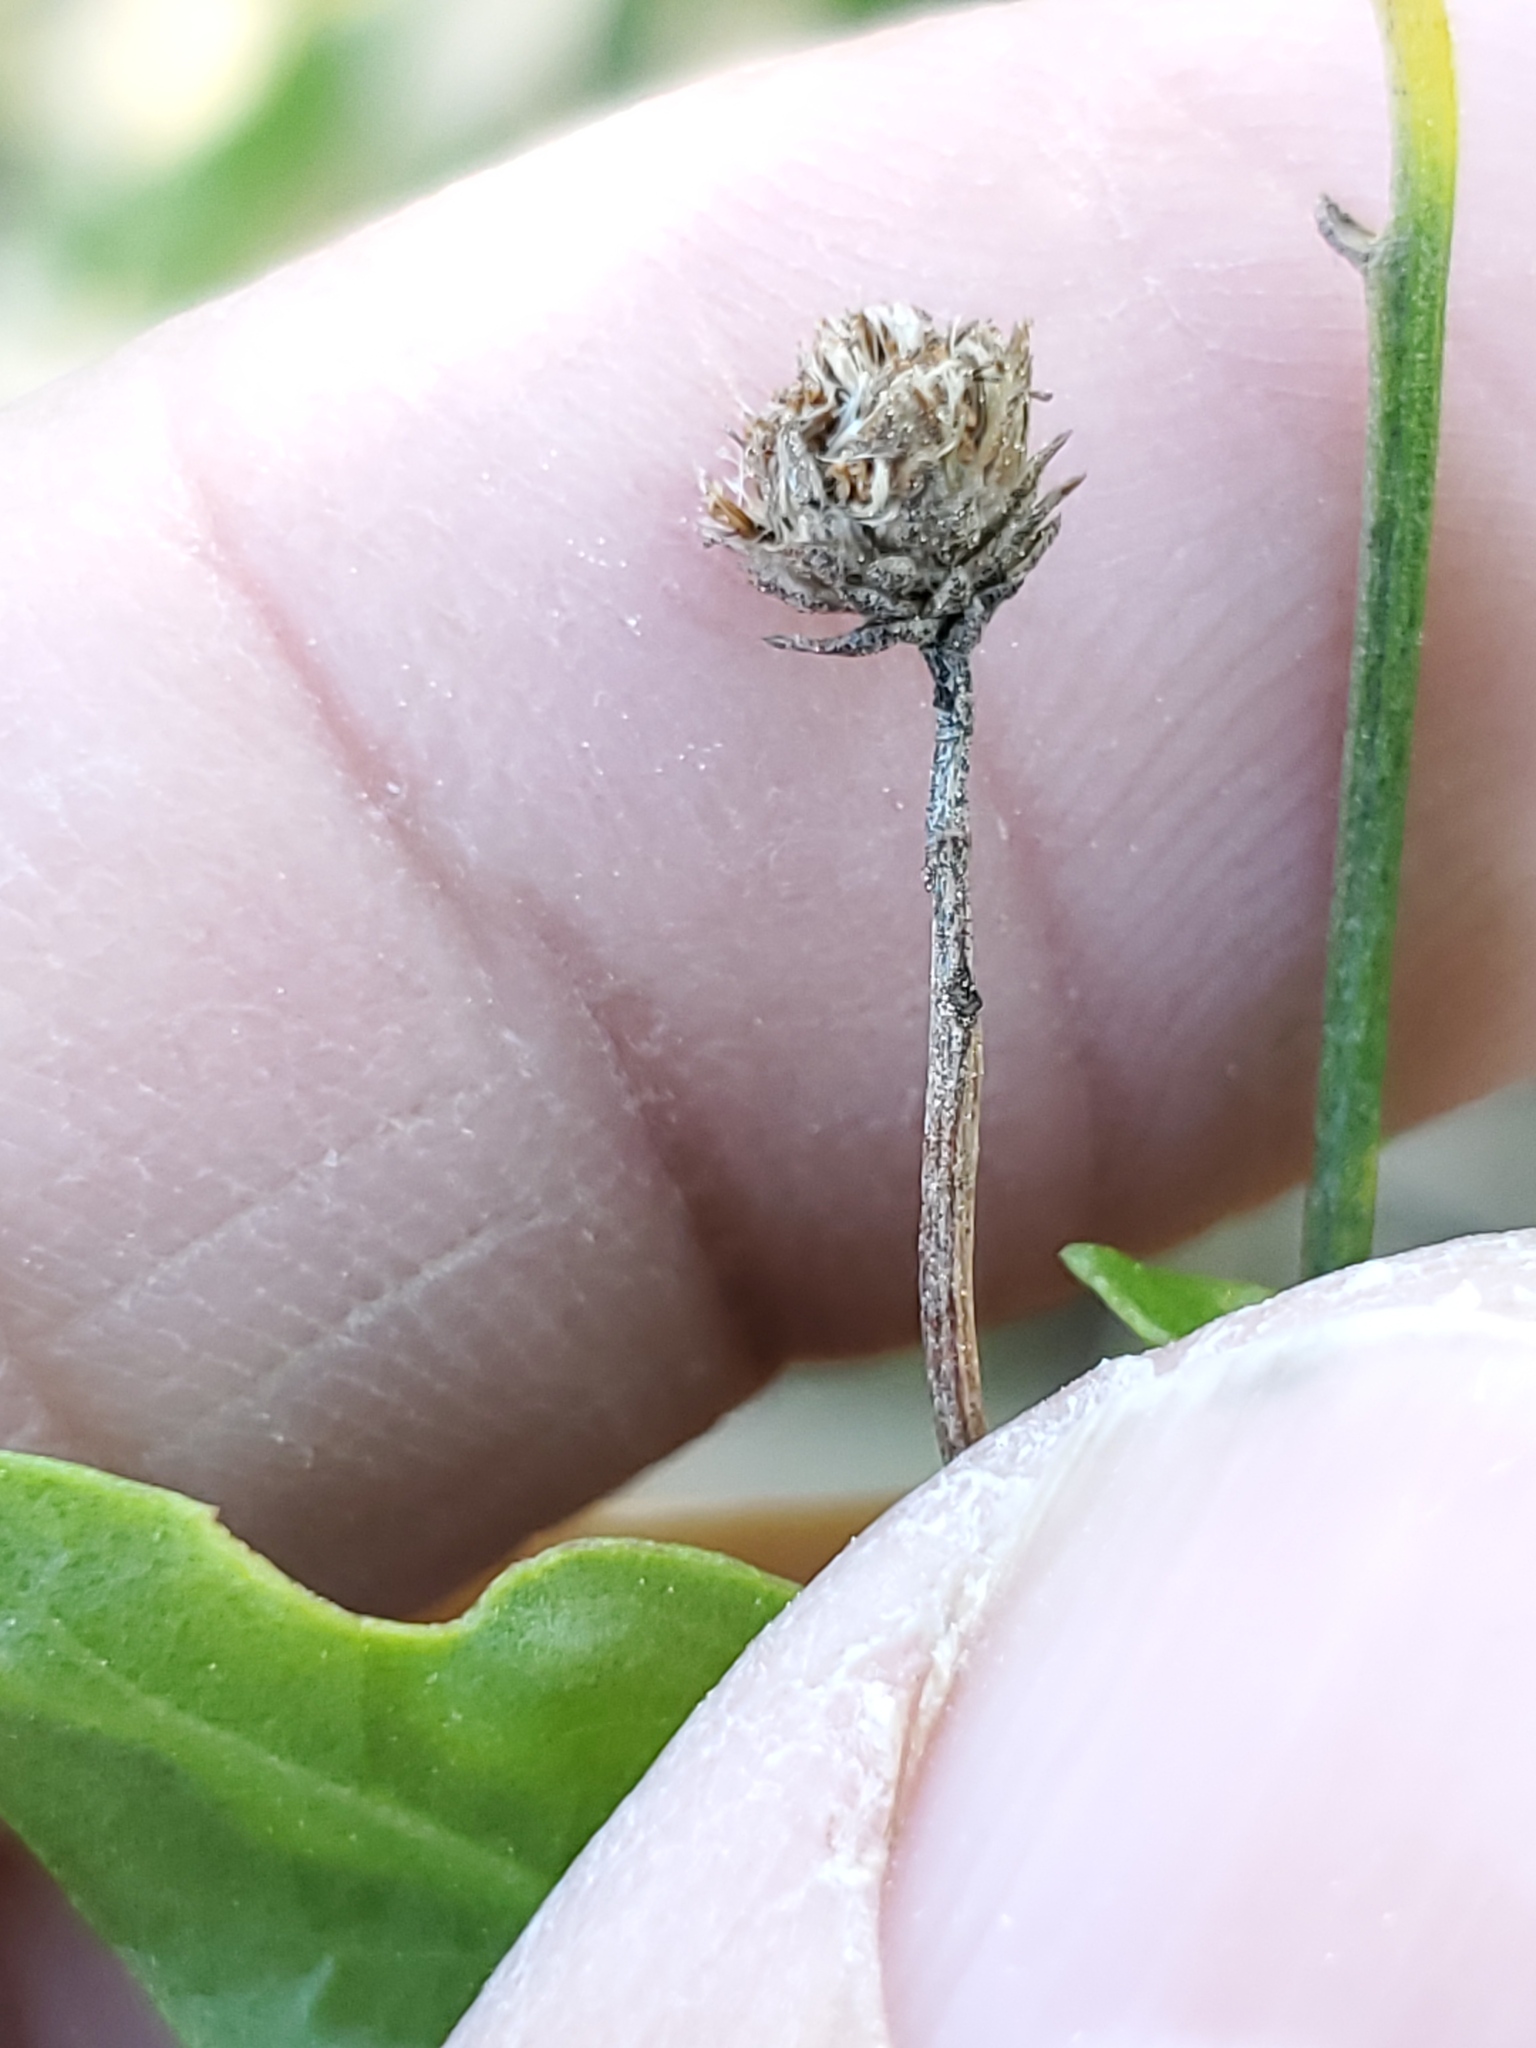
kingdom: Plantae
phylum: Tracheophyta
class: Magnoliopsida
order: Asterales
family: Asteraceae
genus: Baccharis
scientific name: Baccharis halimifolia
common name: Eastern baccharis
